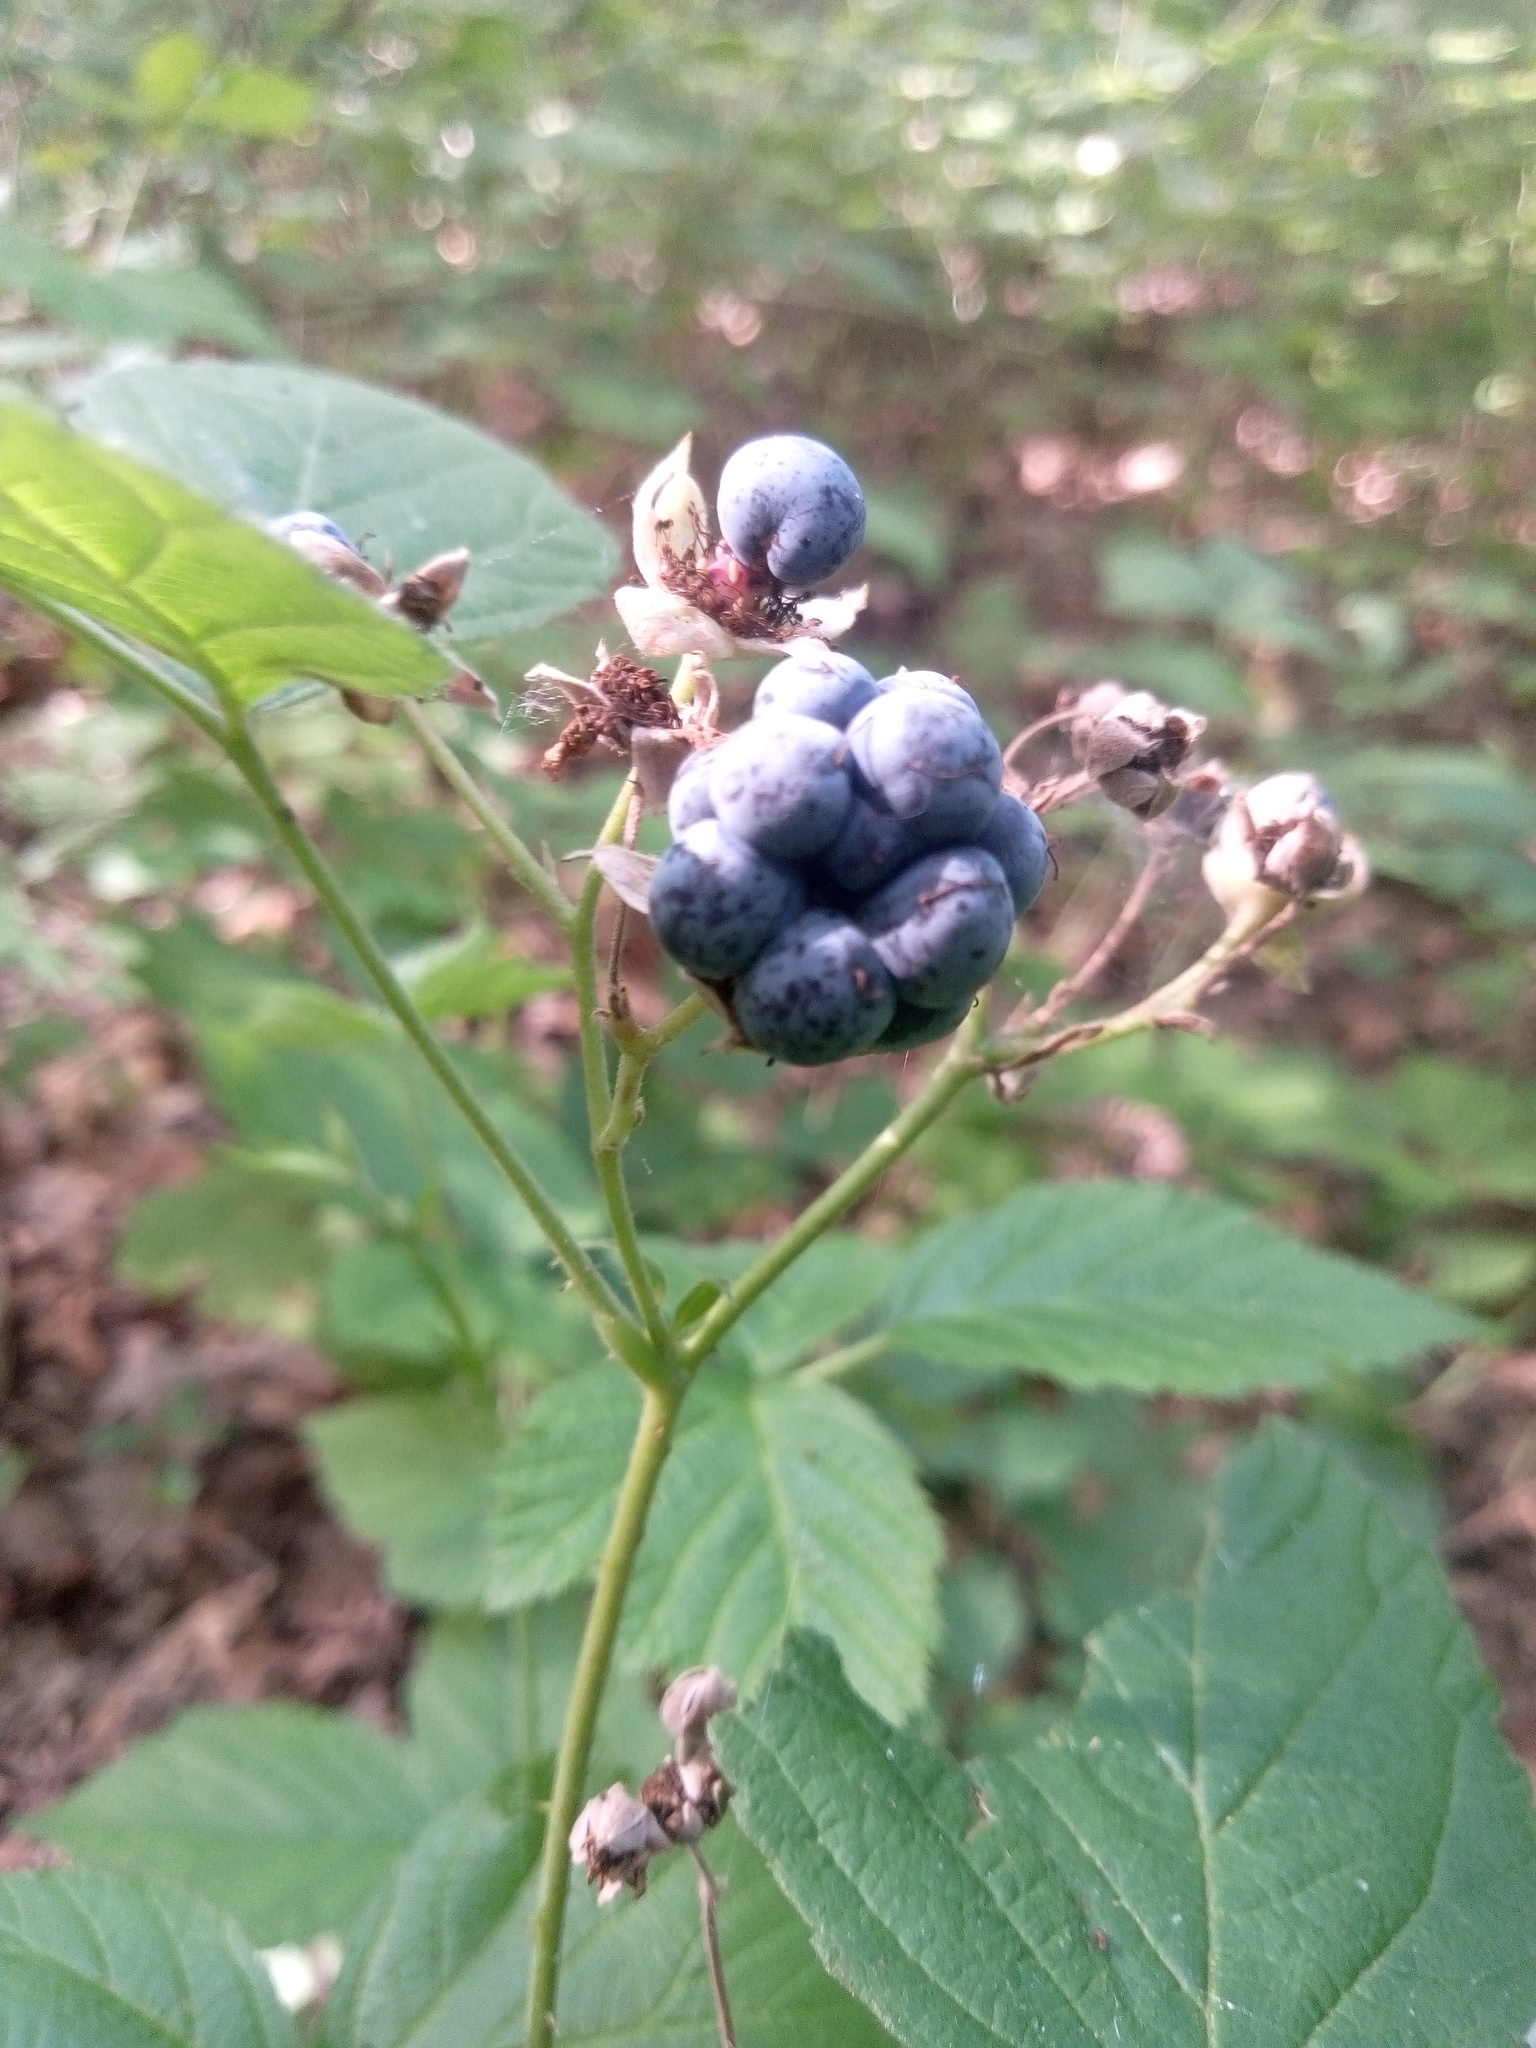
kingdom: Plantae
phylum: Tracheophyta
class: Magnoliopsida
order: Rosales
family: Rosaceae
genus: Rubus
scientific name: Rubus caesius
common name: Dewberry
